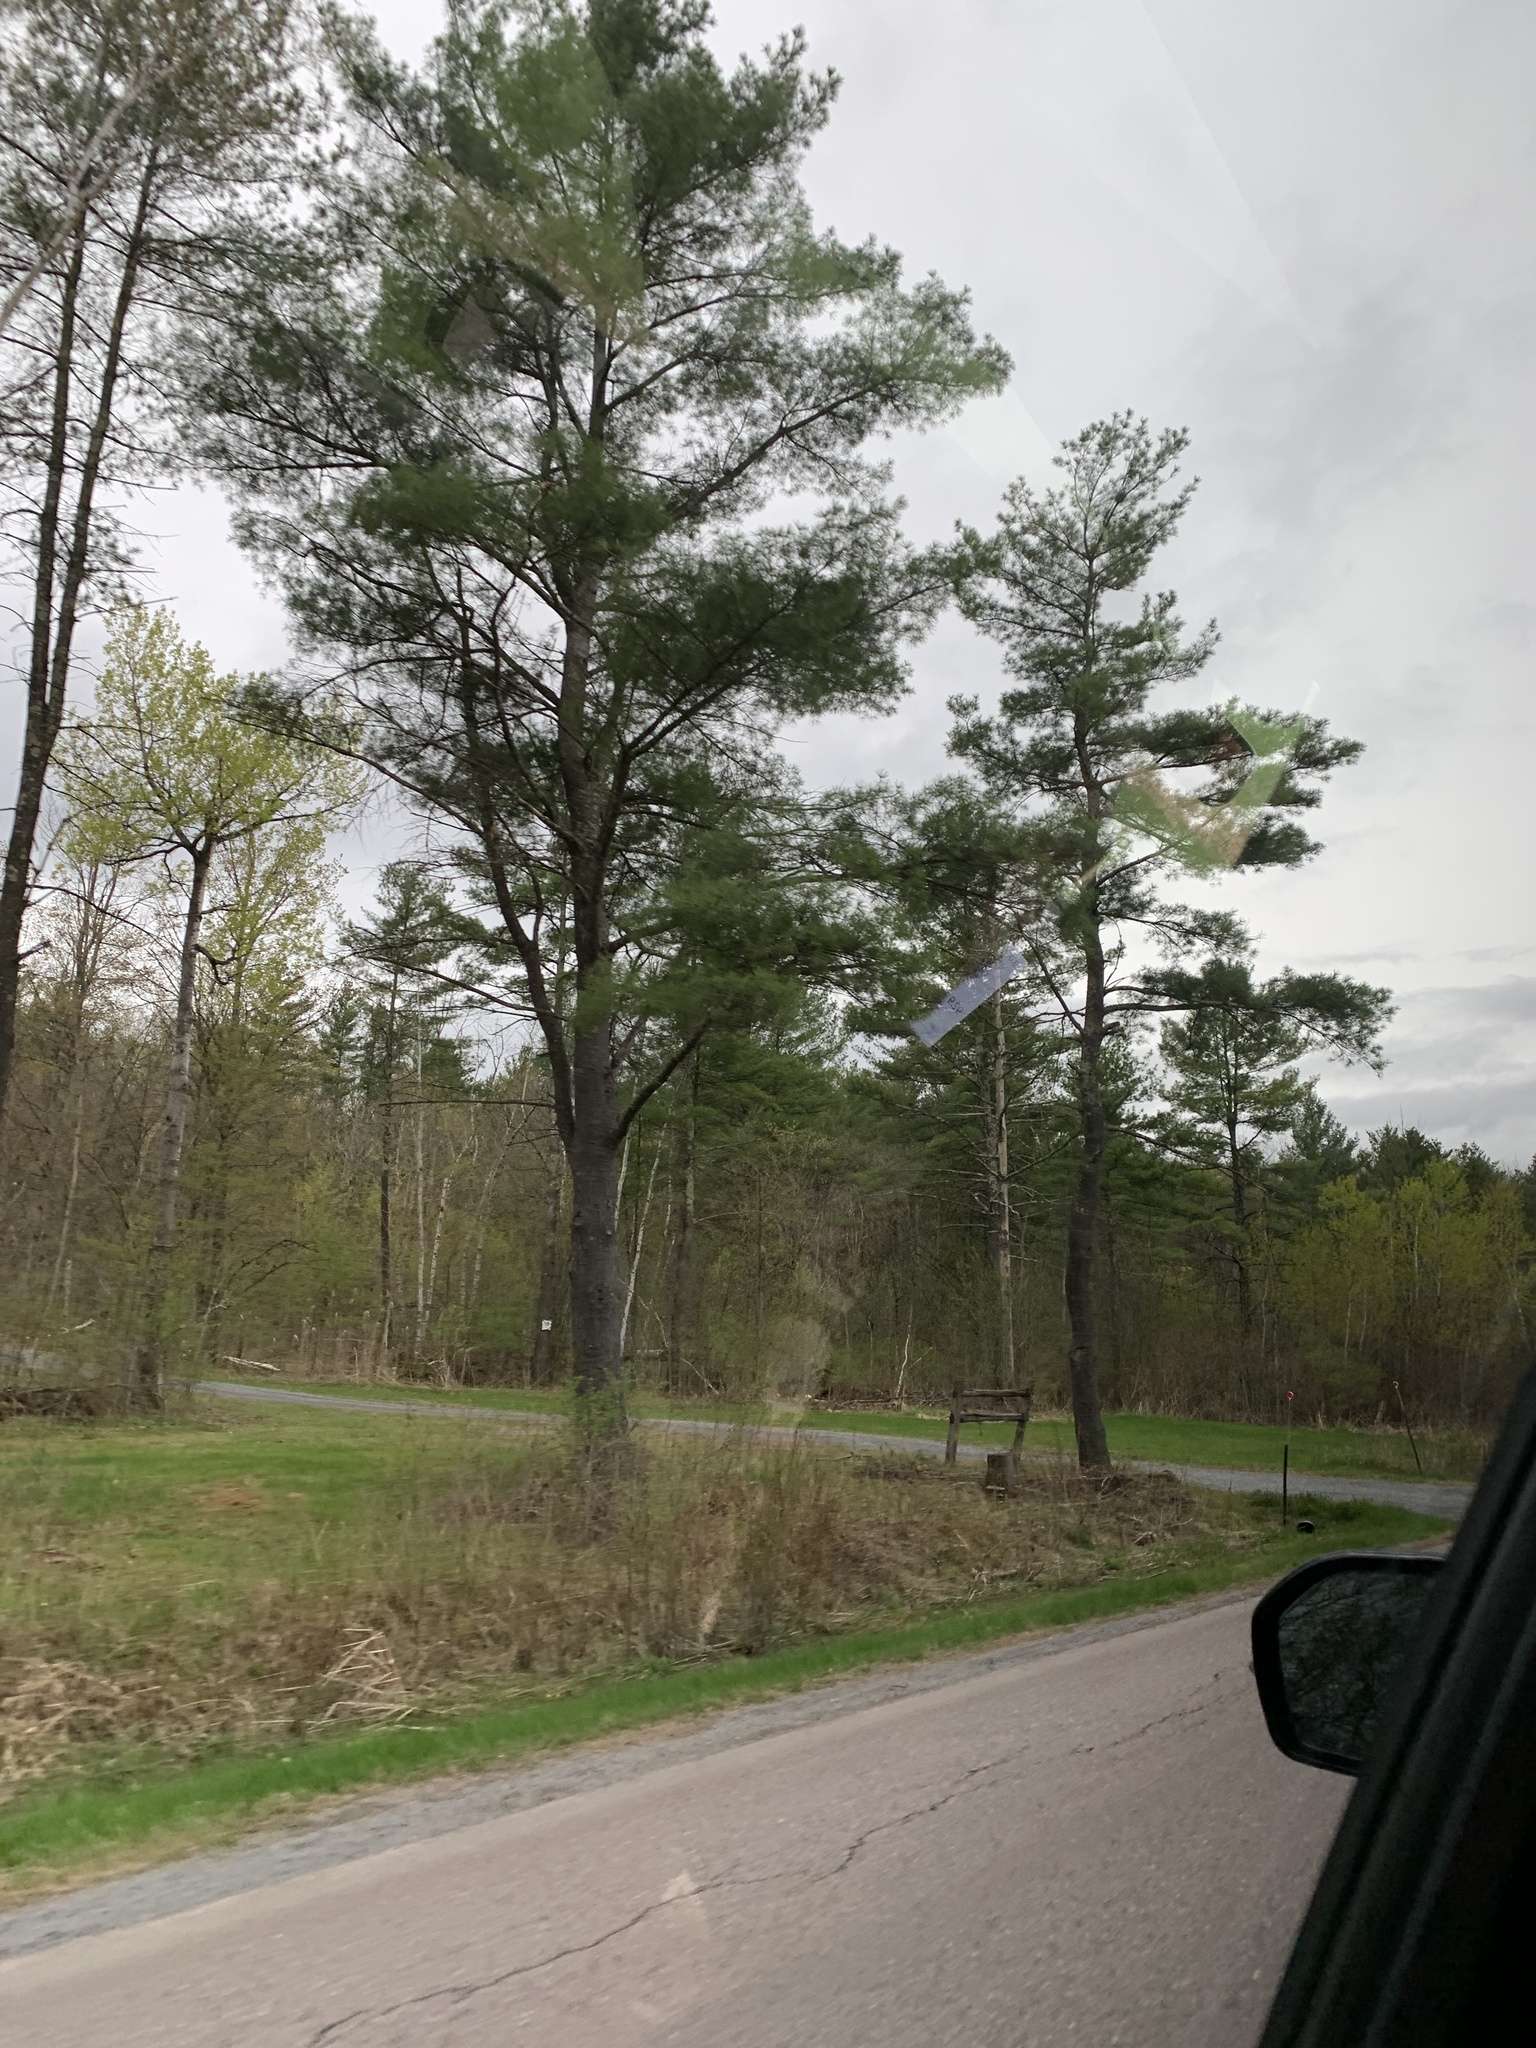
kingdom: Plantae
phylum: Tracheophyta
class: Pinopsida
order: Pinales
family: Pinaceae
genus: Pinus
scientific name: Pinus strobus
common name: Weymouth pine
